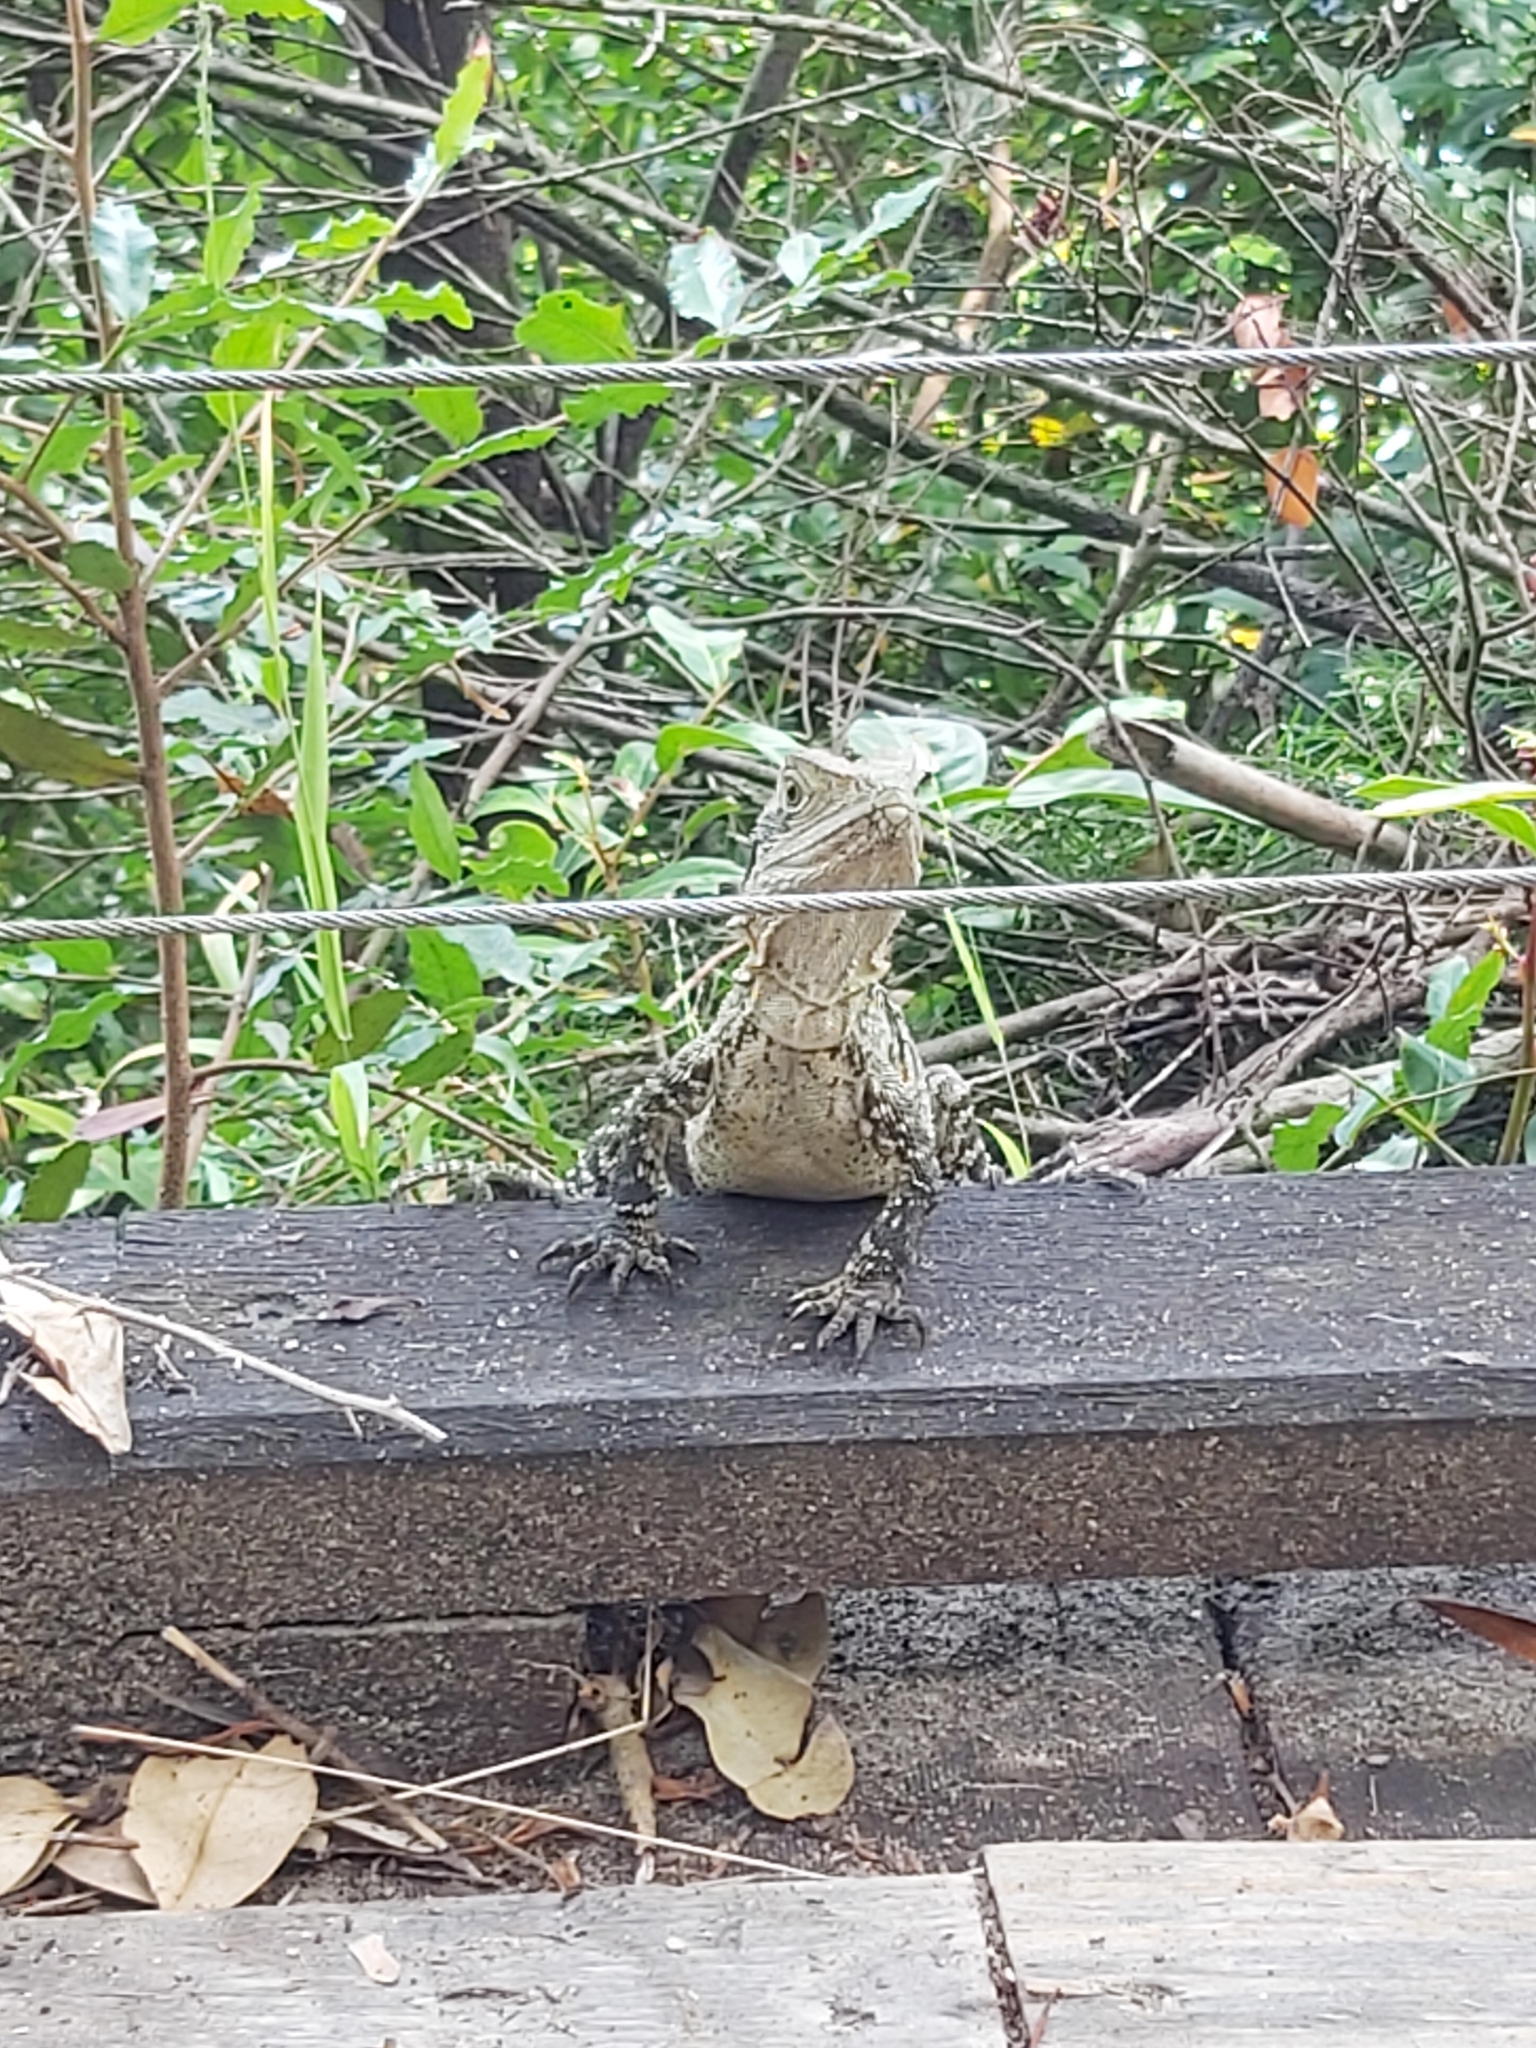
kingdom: Animalia
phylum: Chordata
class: Squamata
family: Agamidae
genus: Intellagama
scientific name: Intellagama lesueurii
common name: Eastern water dragon
